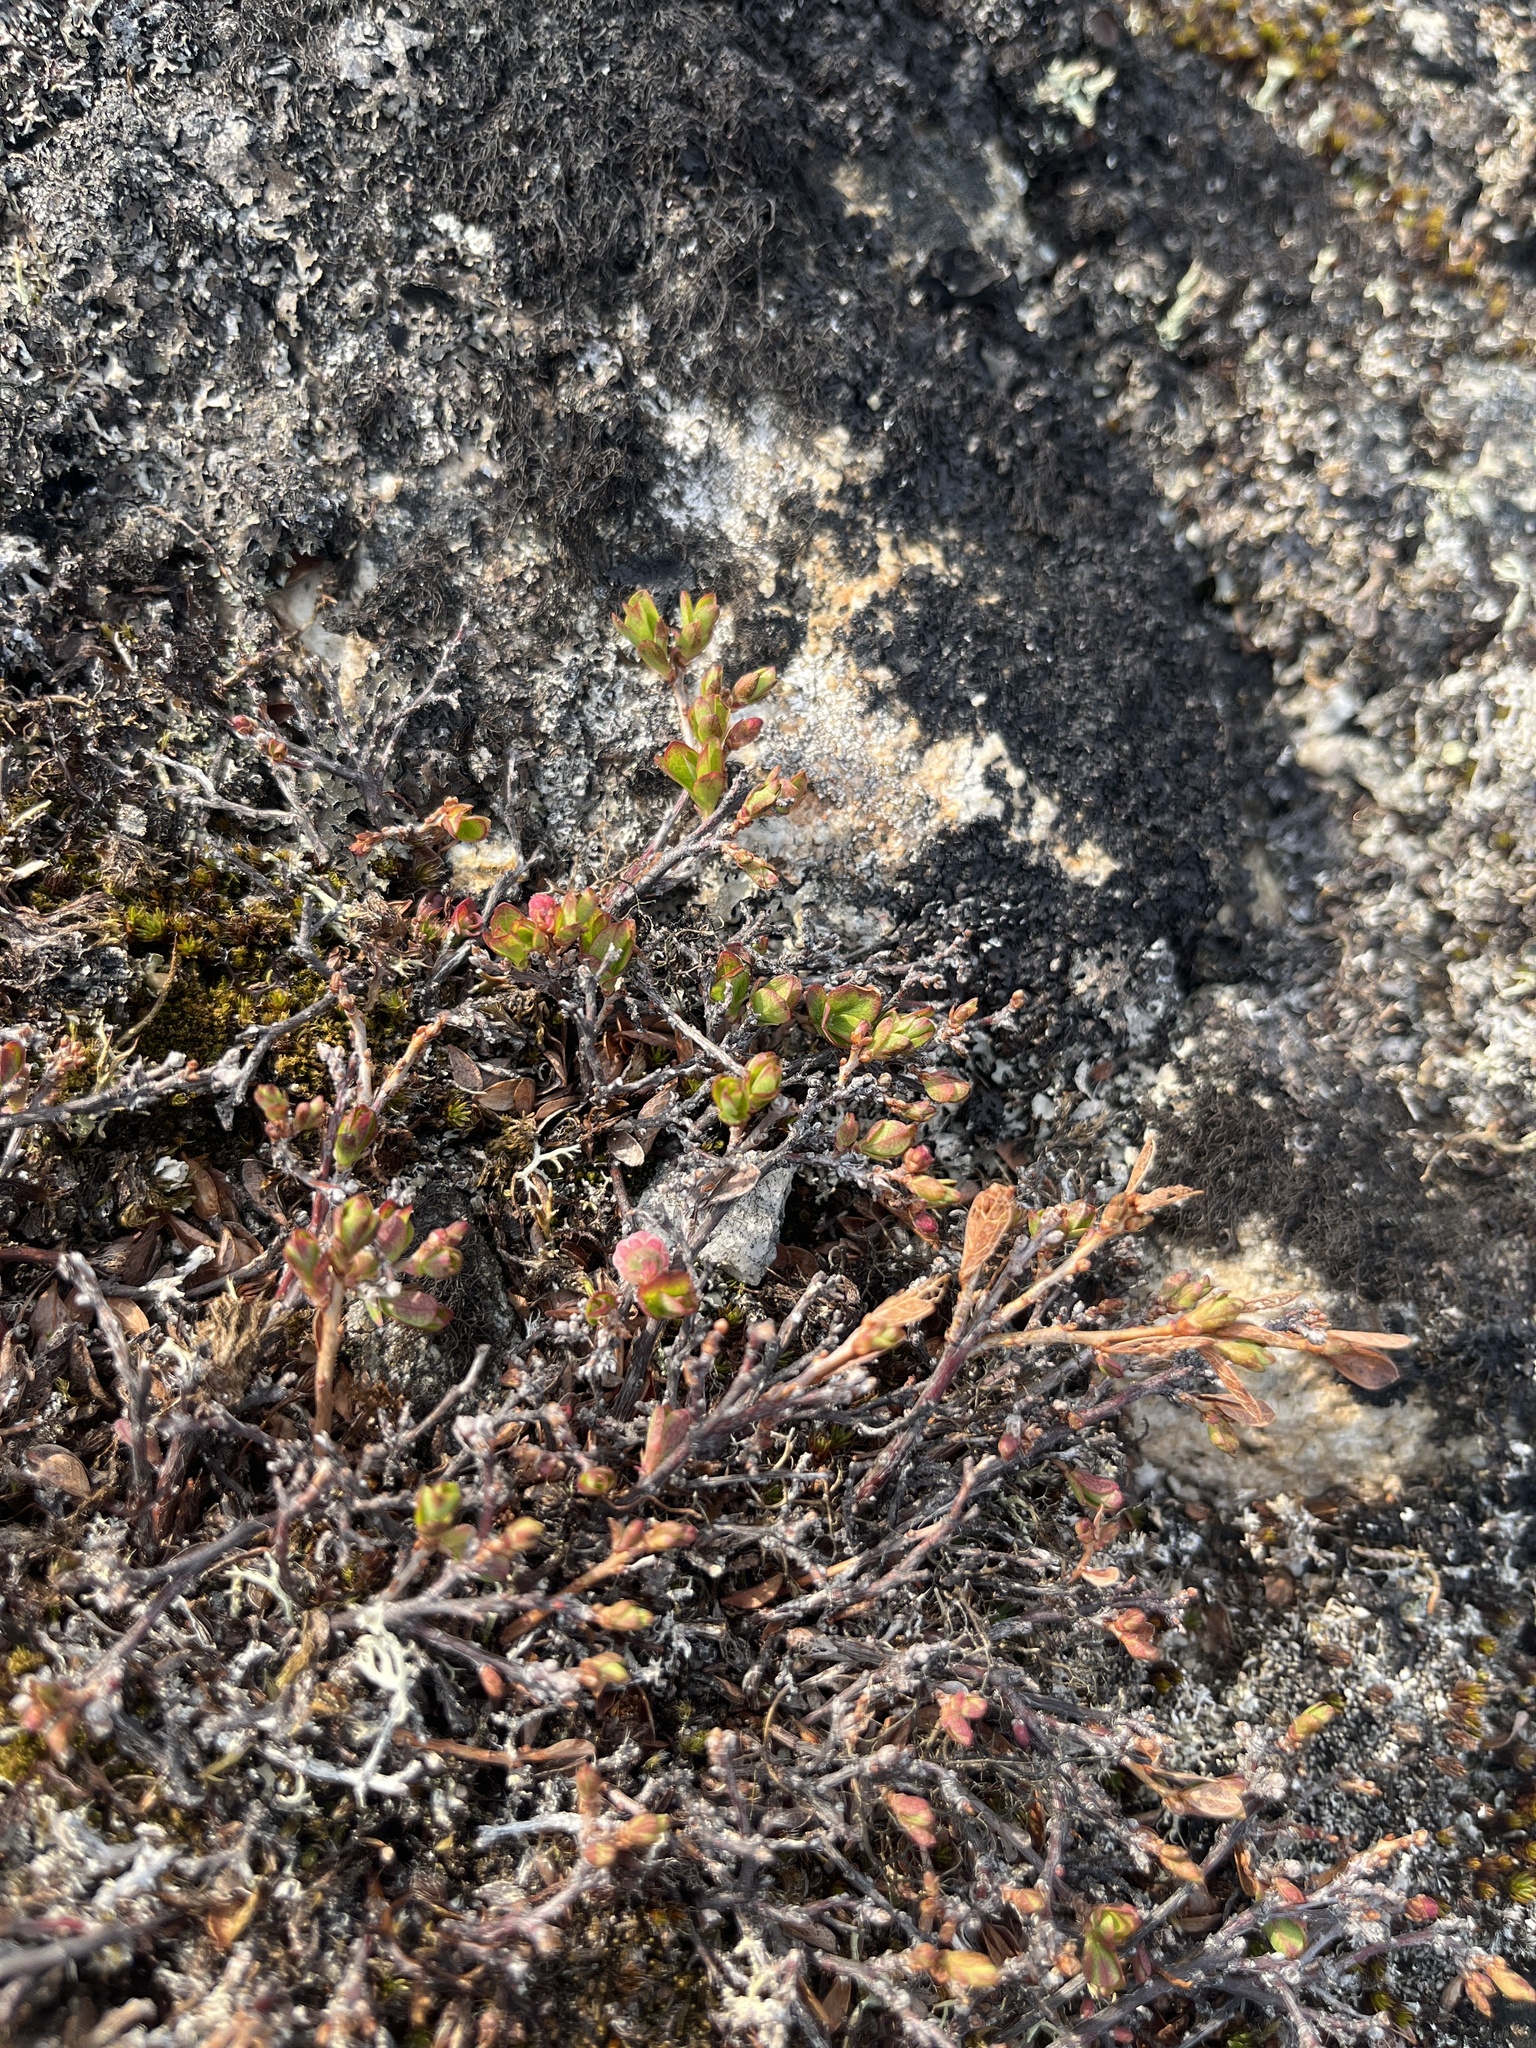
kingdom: Plantae
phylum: Tracheophyta
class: Magnoliopsida
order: Ericales
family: Ericaceae
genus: Vaccinium
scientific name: Vaccinium uliginosum
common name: Bog bilberry
